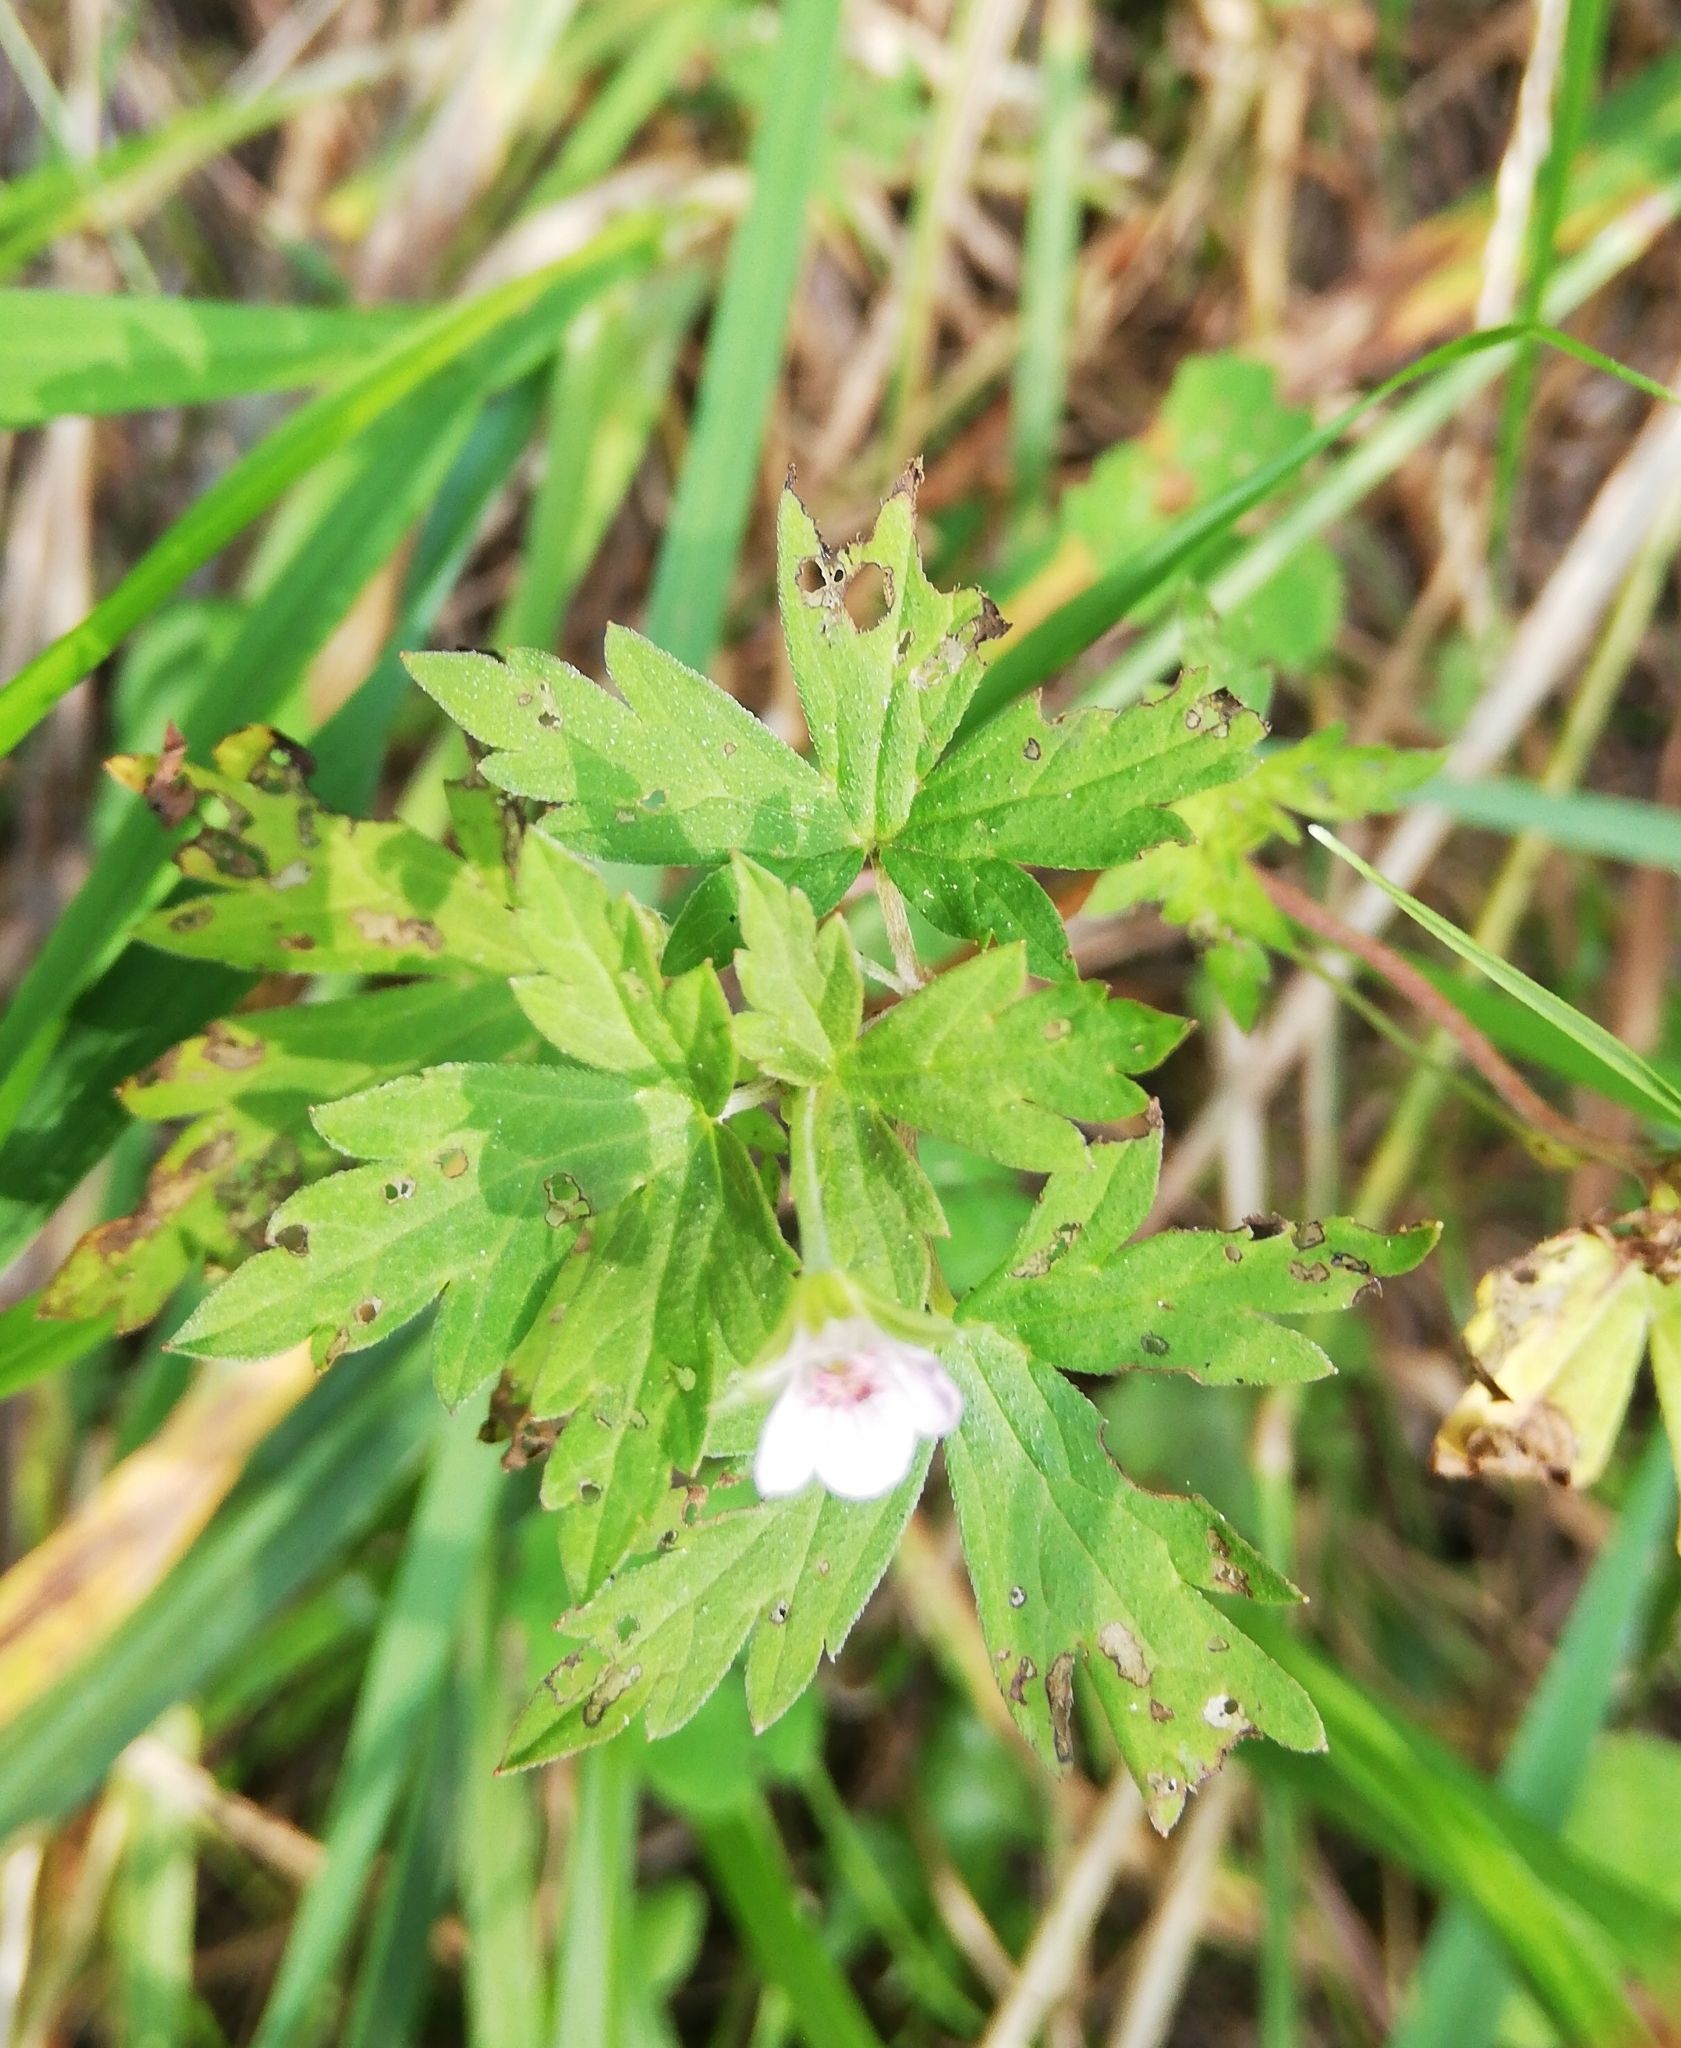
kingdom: Plantae
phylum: Tracheophyta
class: Magnoliopsida
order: Geraniales
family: Geraniaceae
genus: Geranium
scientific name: Geranium sibiricum
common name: Siberian crane's-bill
